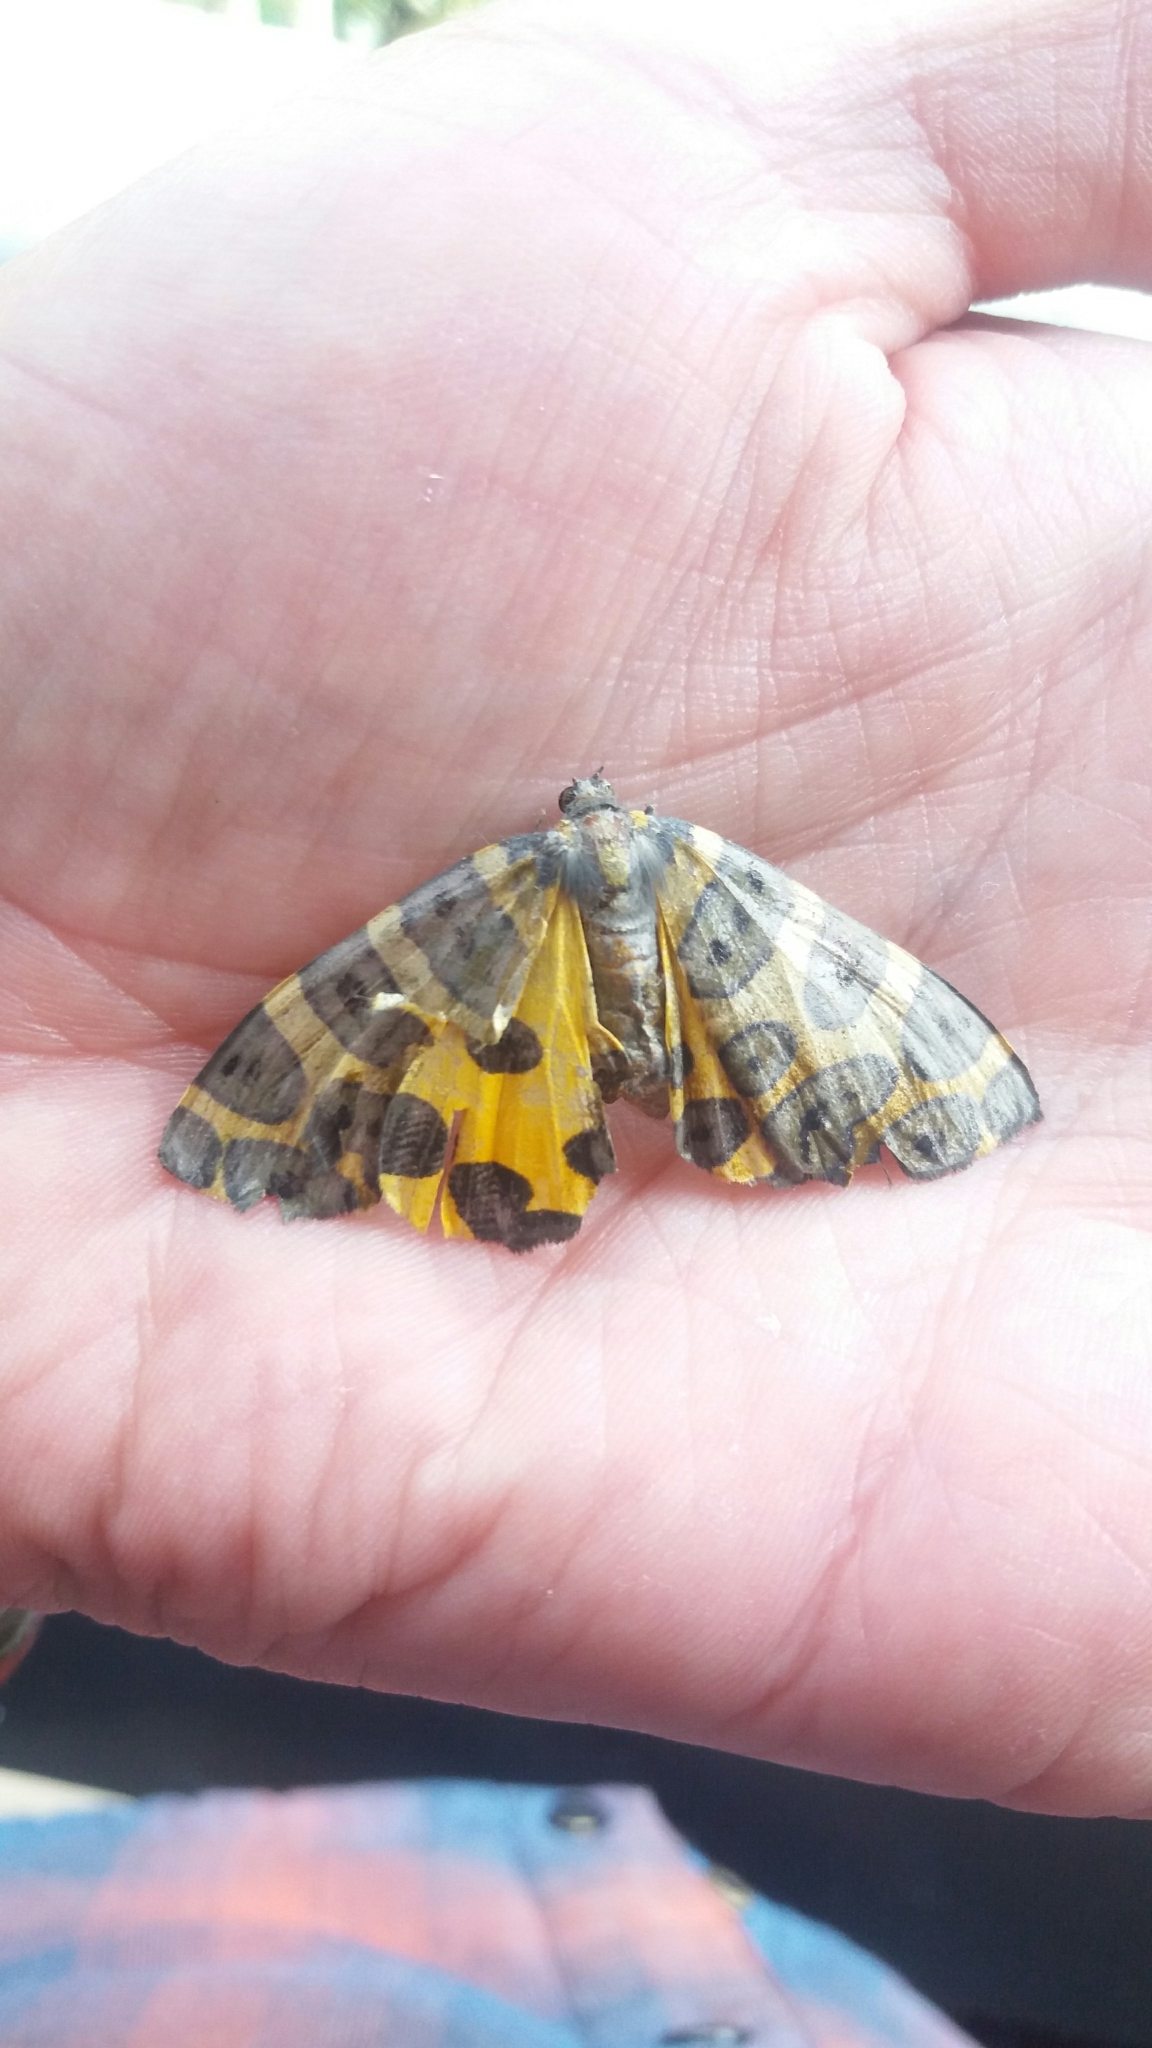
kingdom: Animalia
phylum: Arthropoda
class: Insecta
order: Lepidoptera
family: Geometridae
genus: Pantherodes
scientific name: Pantherodes pardalaria
